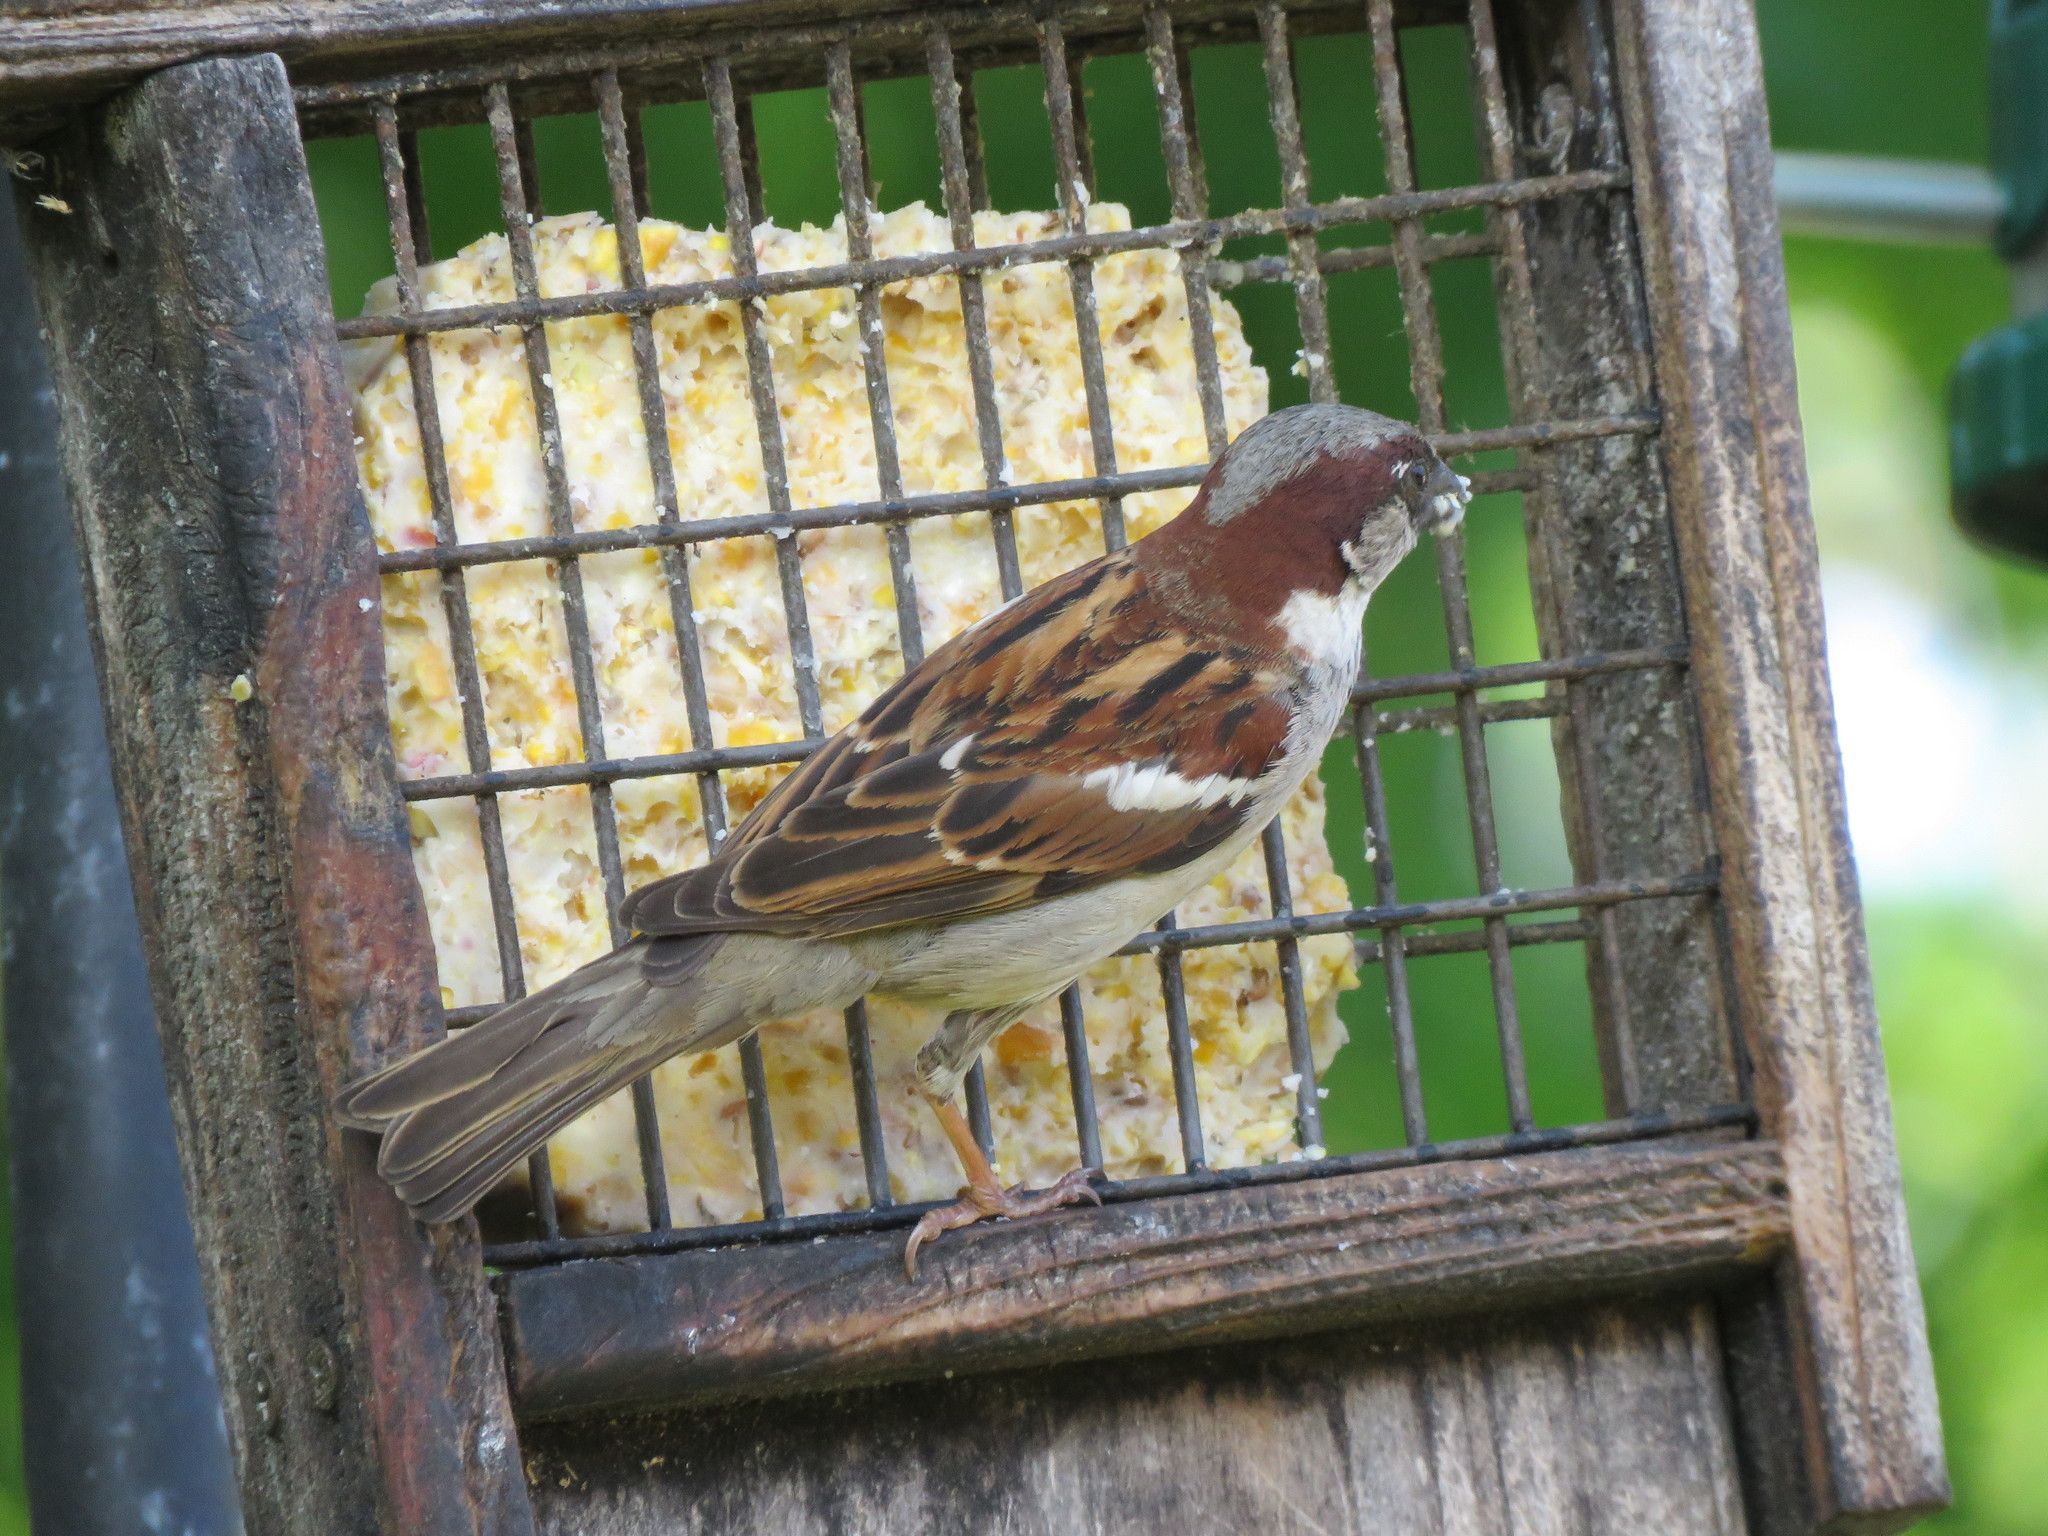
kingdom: Animalia
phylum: Chordata
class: Aves
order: Passeriformes
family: Passeridae
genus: Passer
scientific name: Passer domesticus
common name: House sparrow
